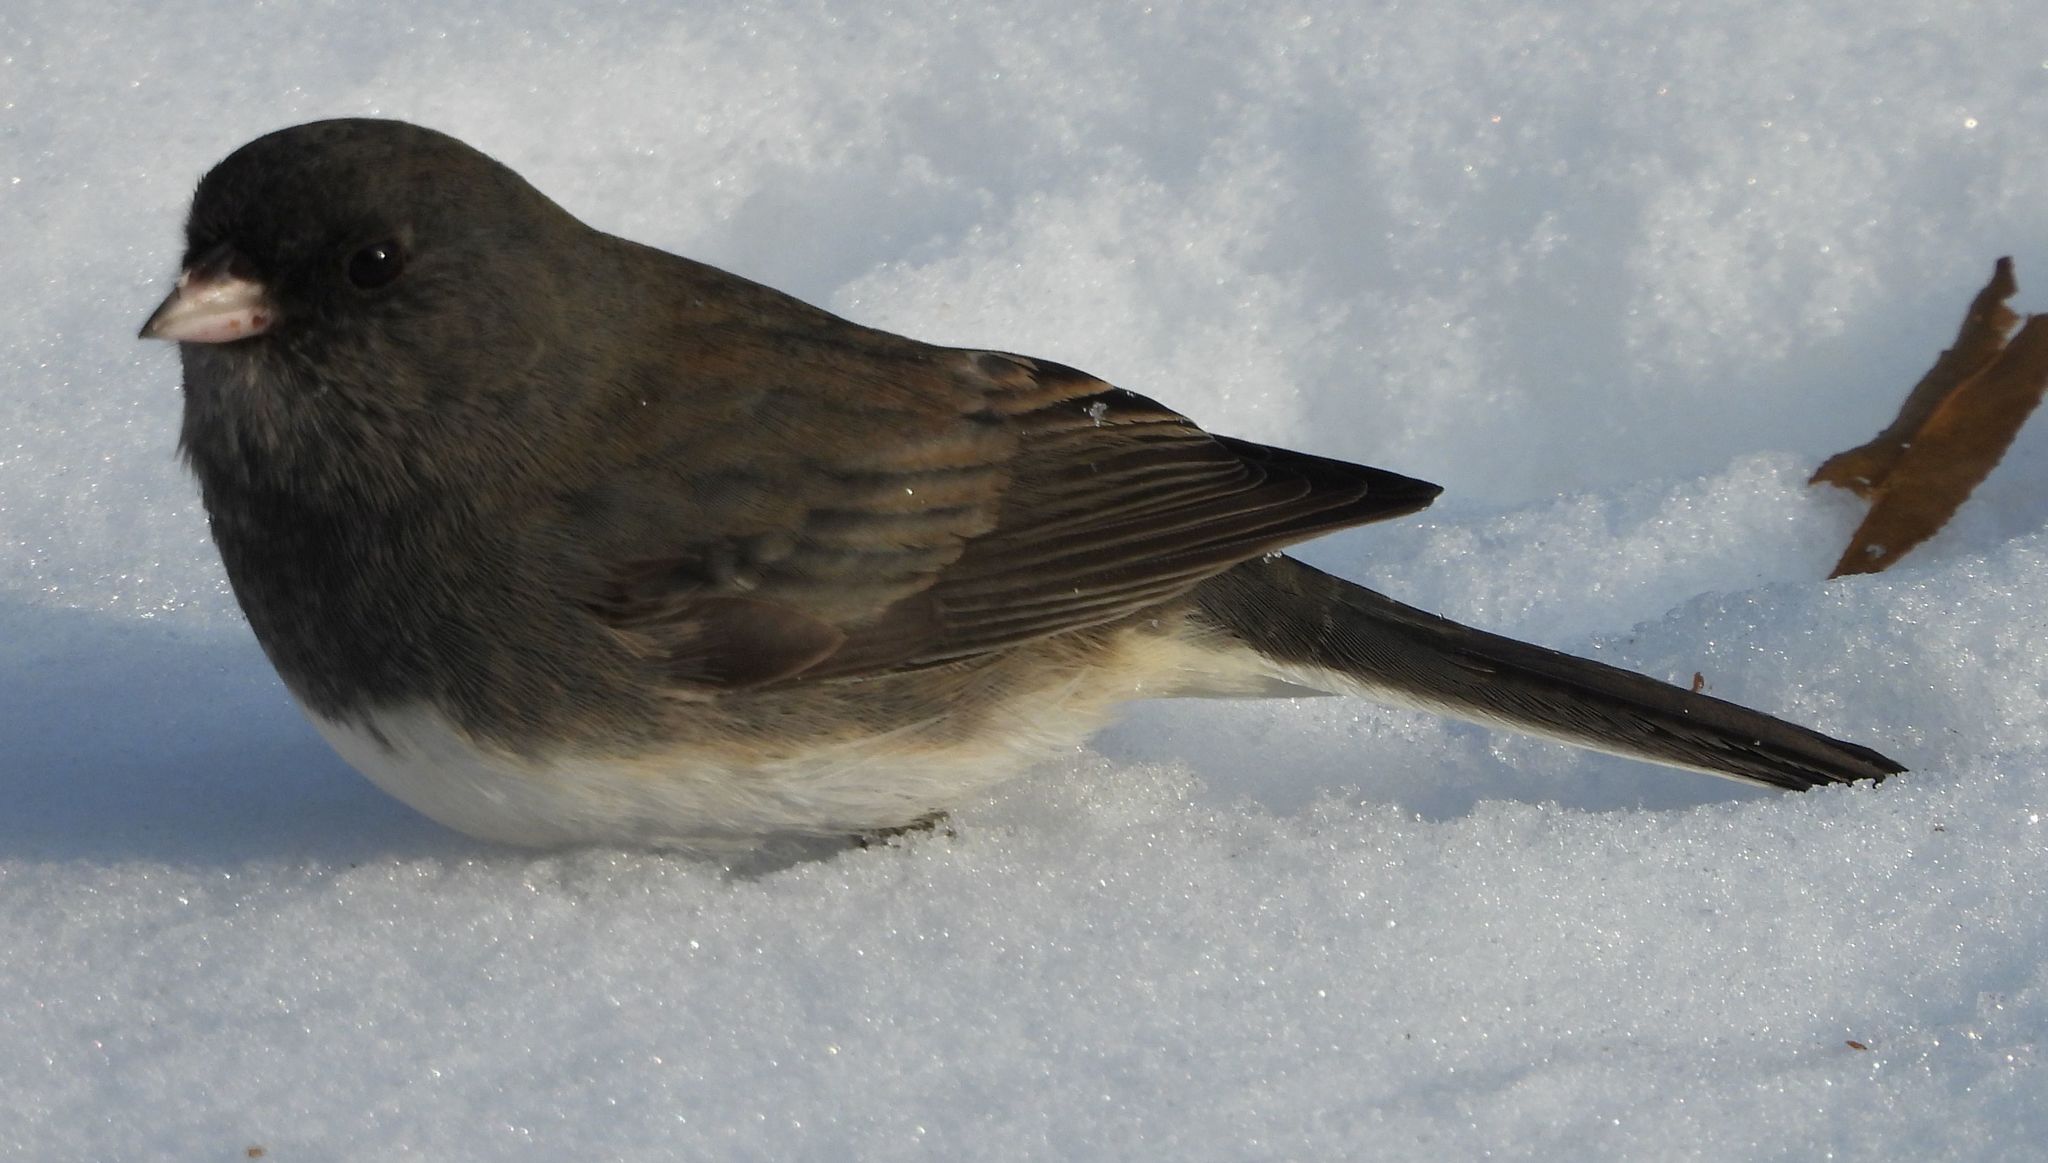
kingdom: Animalia
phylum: Chordata
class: Aves
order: Passeriformes
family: Passerellidae
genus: Junco
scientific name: Junco hyemalis
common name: Dark-eyed junco
